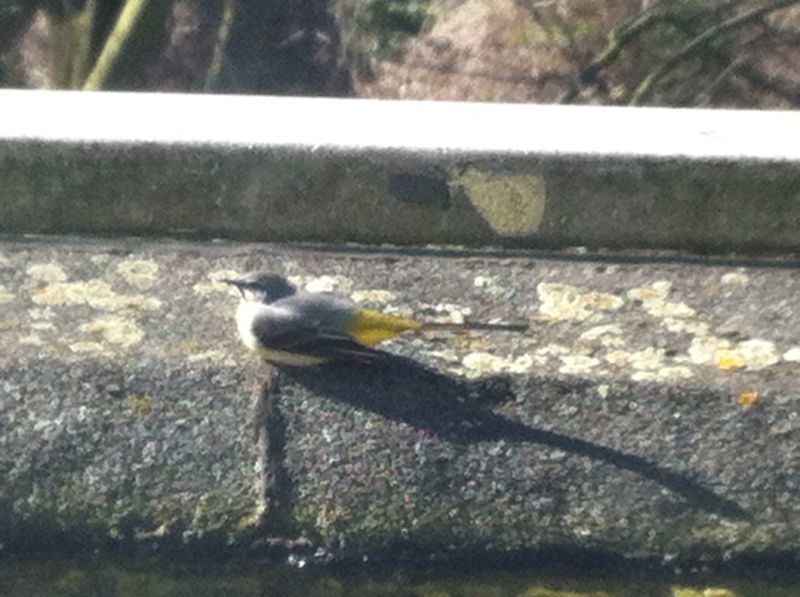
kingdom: Animalia
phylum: Chordata
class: Aves
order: Passeriformes
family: Motacillidae
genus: Motacilla
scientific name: Motacilla cinerea
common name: Grey wagtail
